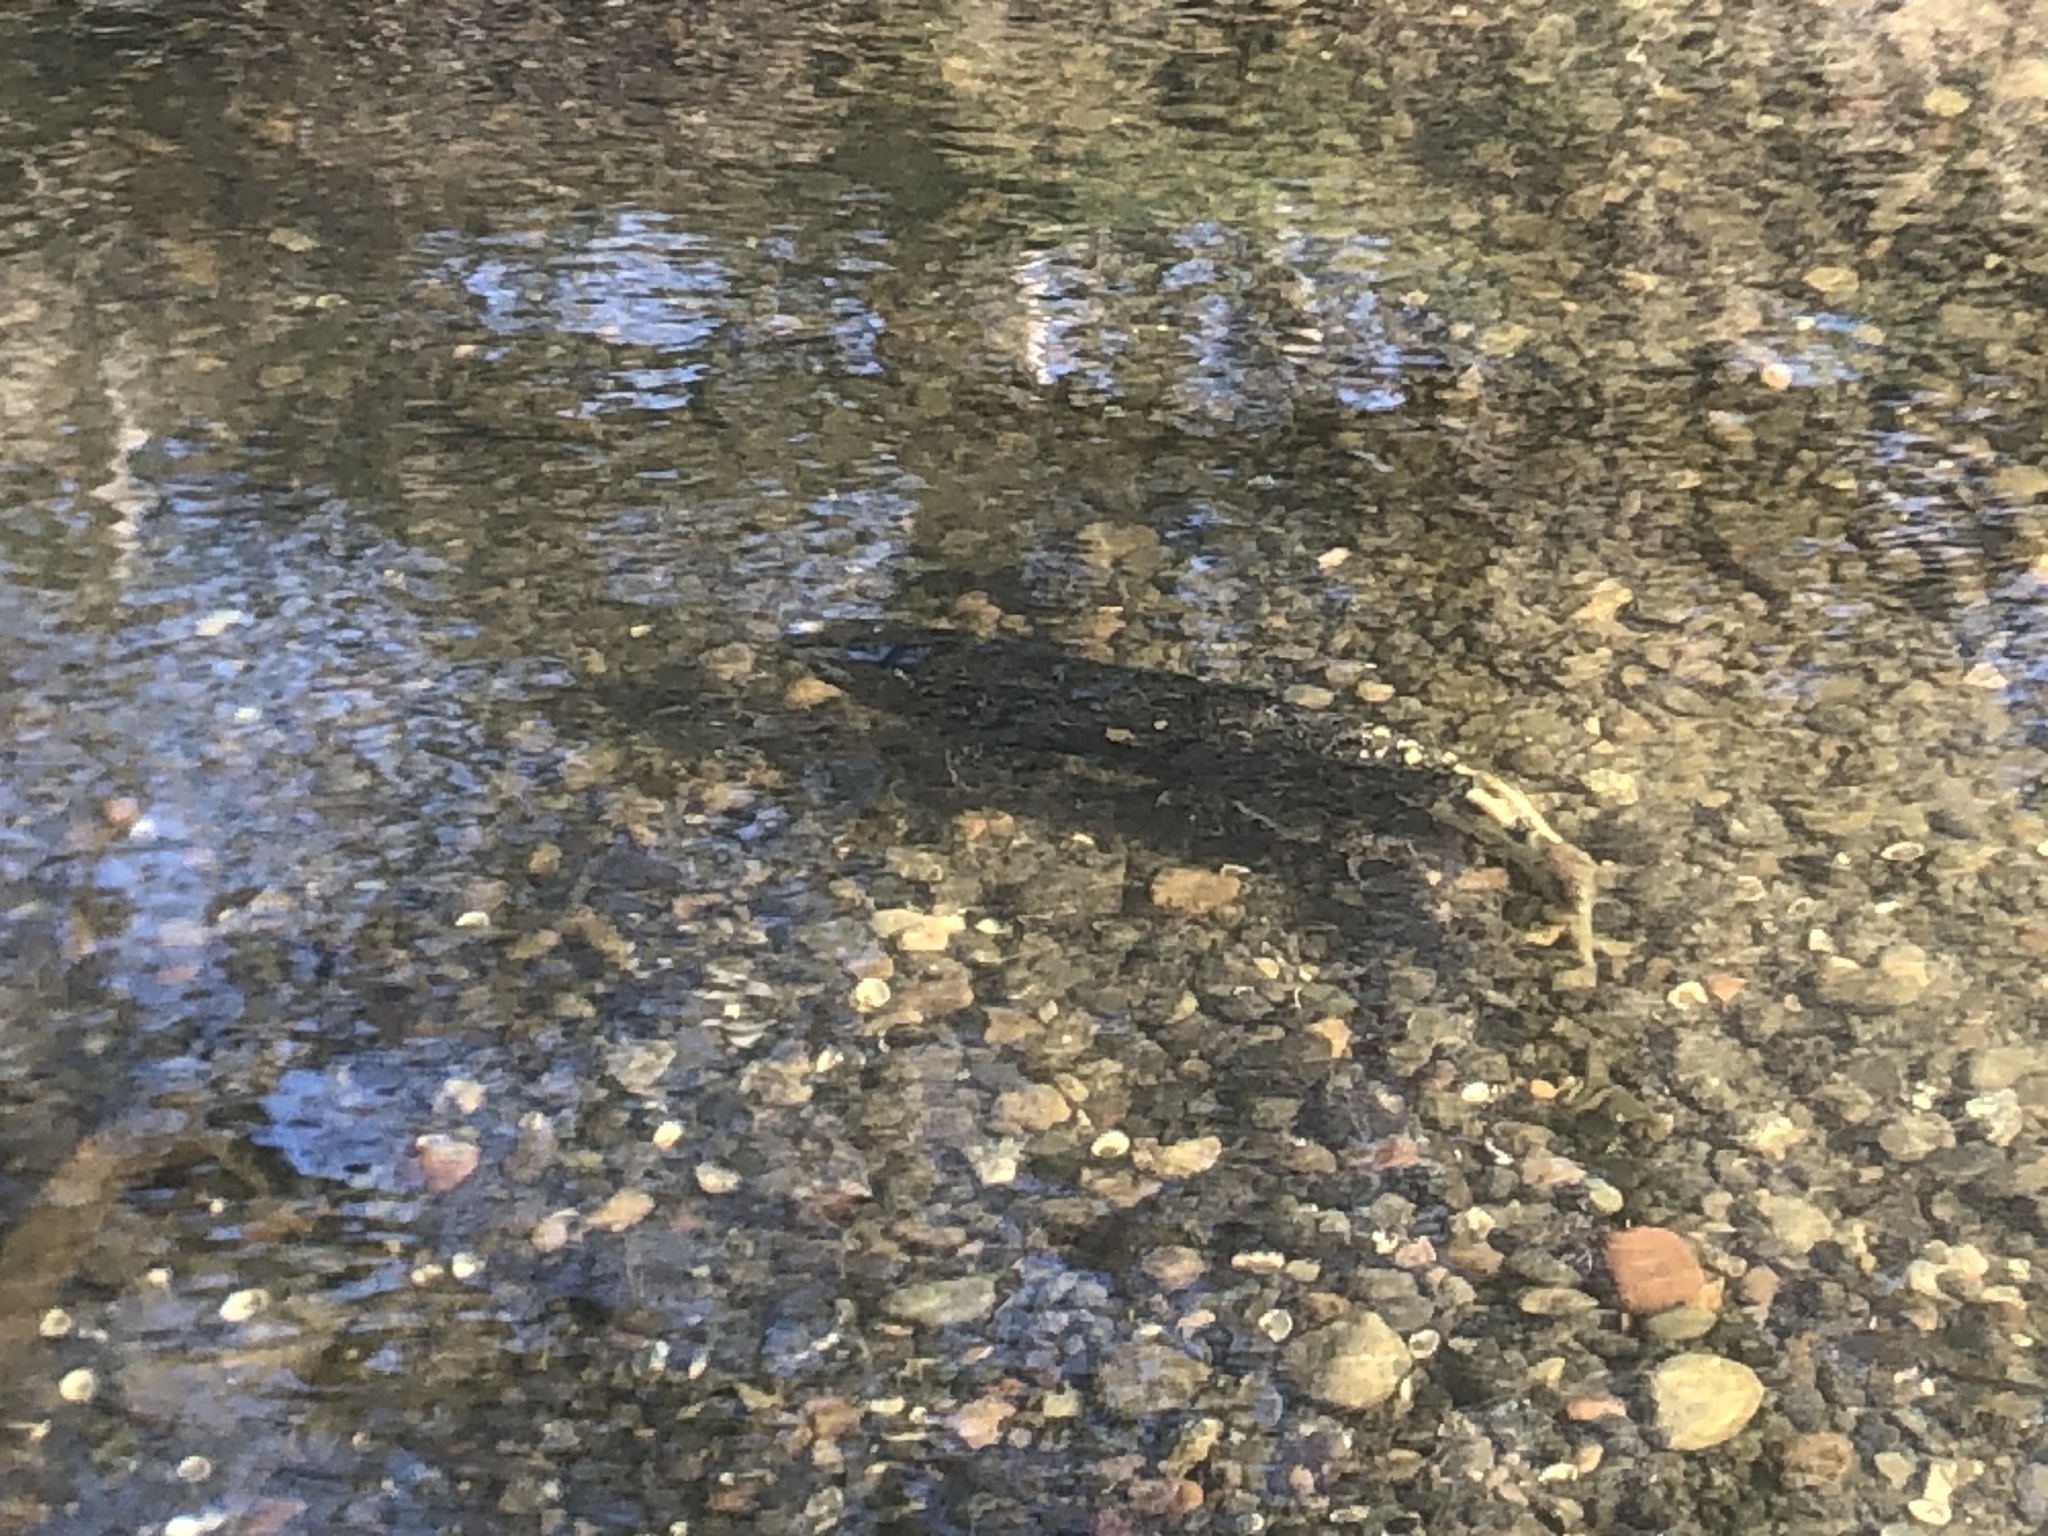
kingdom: Animalia
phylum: Chordata
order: Salmoniformes
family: Salmonidae
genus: Oncorhynchus
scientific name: Oncorhynchus tshawytscha
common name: Chinook salmon
